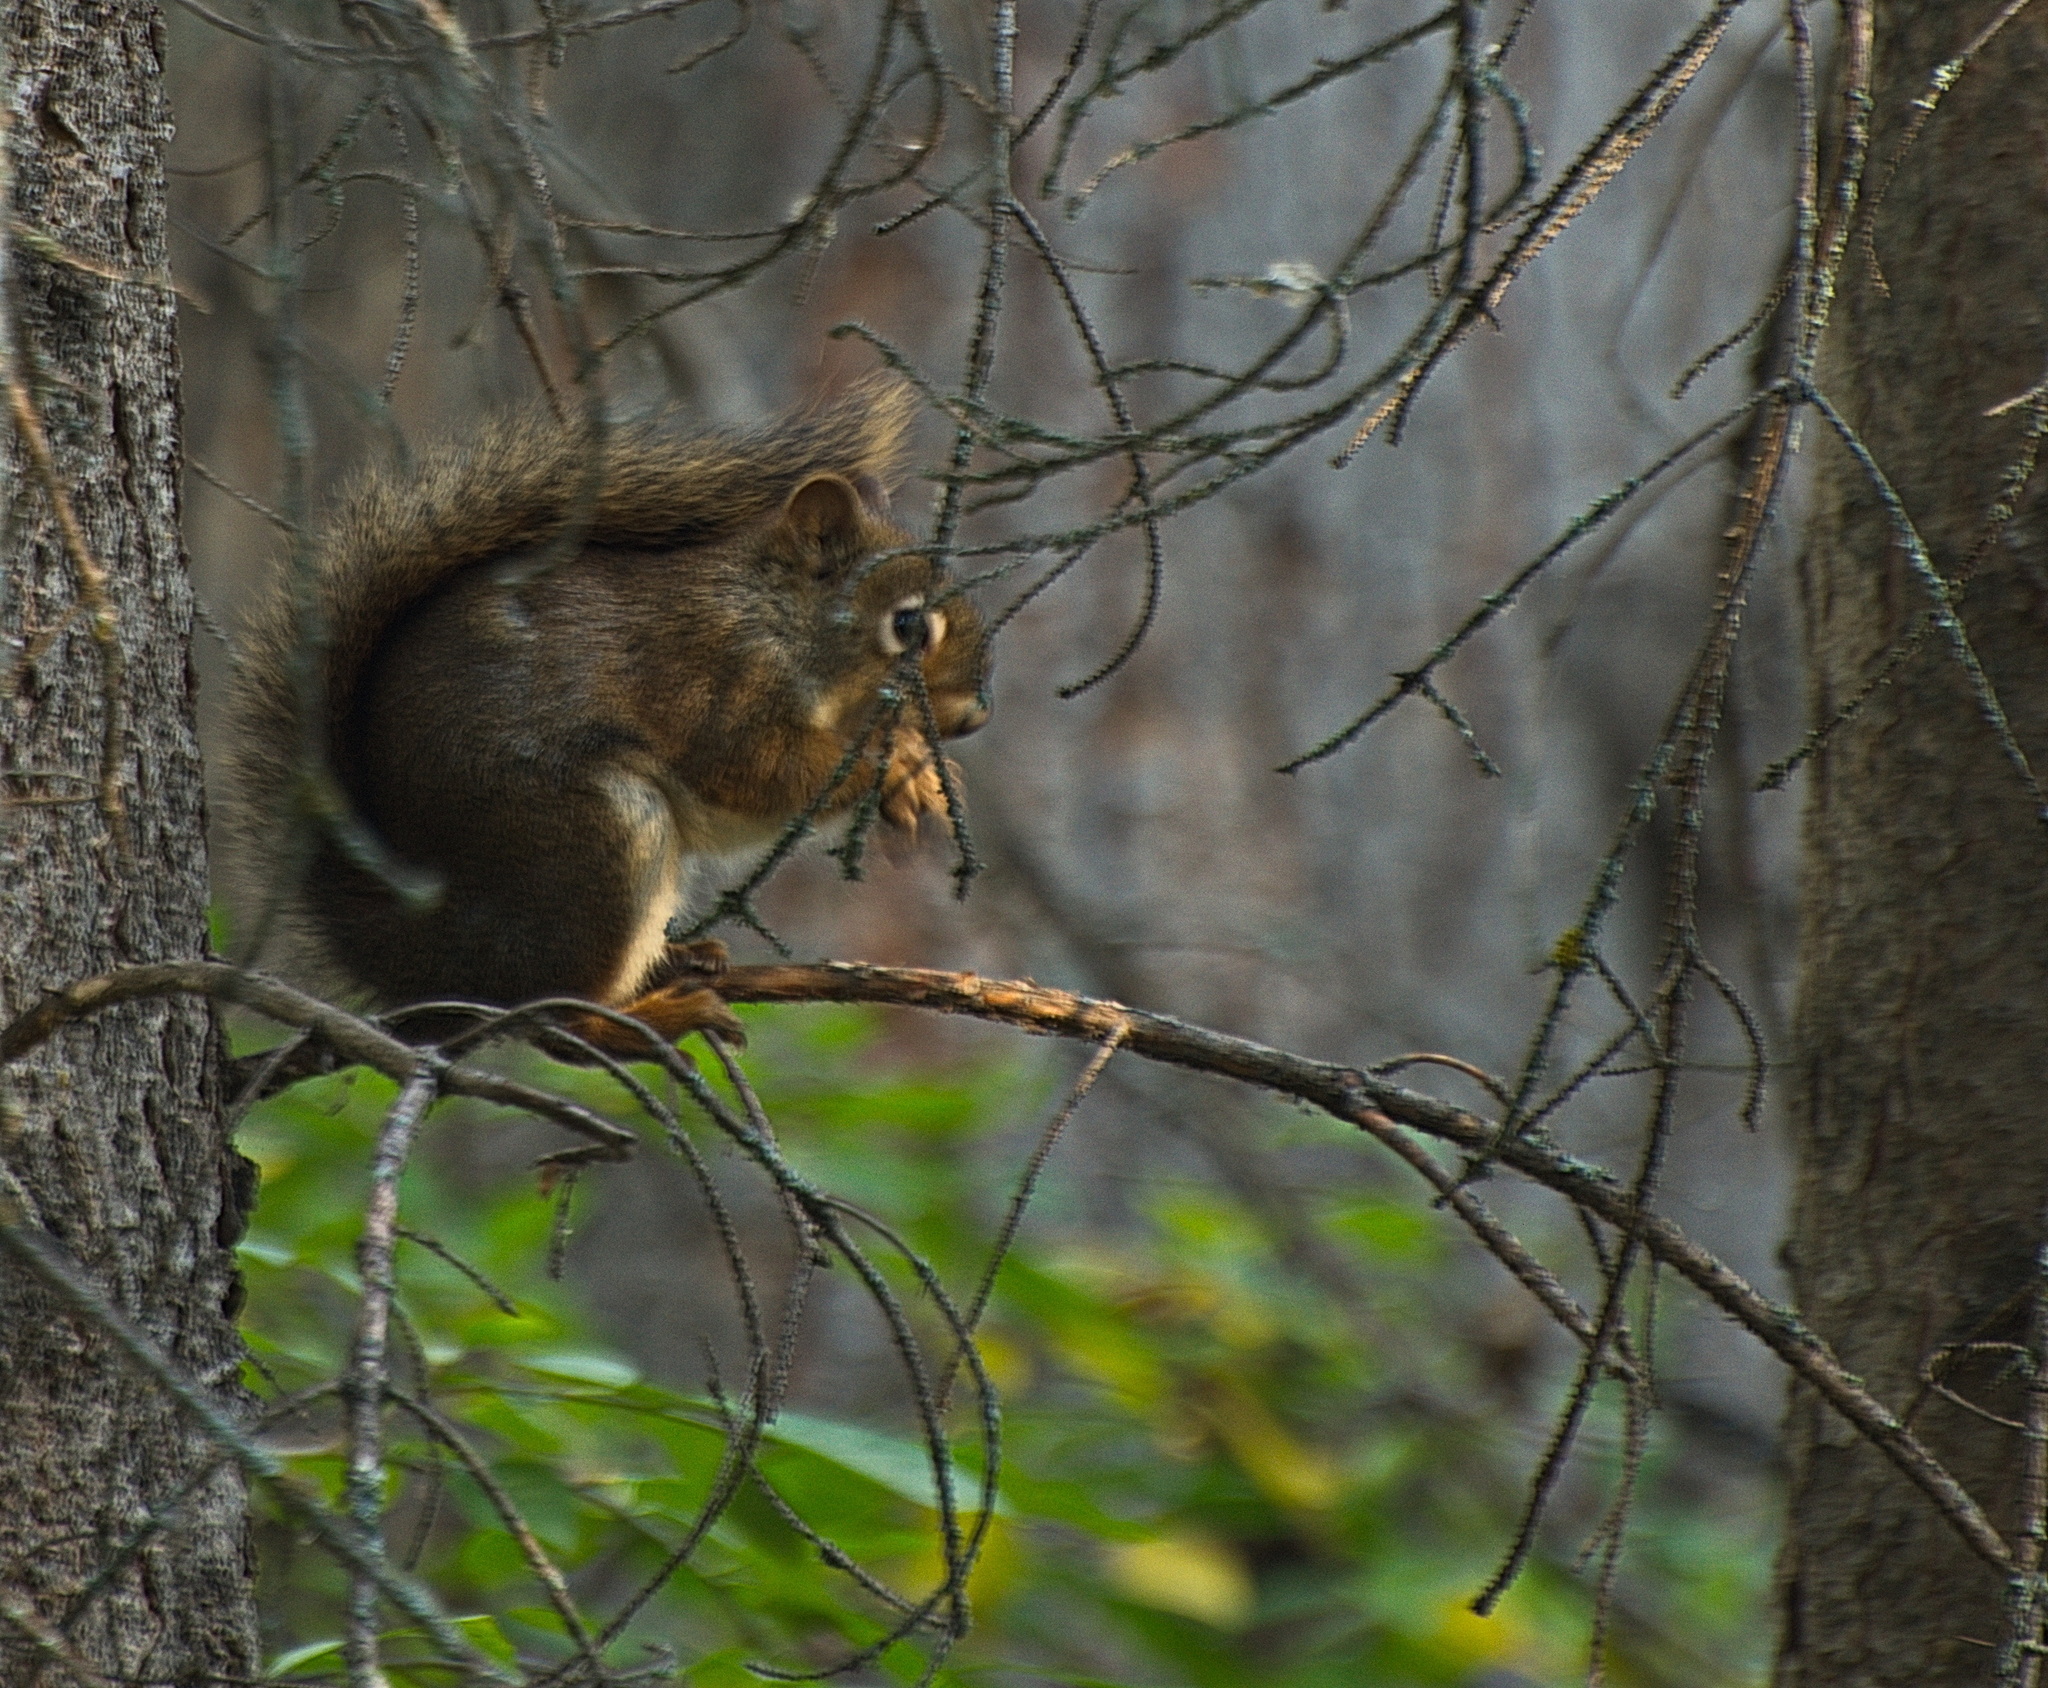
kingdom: Animalia
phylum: Chordata
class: Mammalia
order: Rodentia
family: Sciuridae
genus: Tamiasciurus
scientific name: Tamiasciurus hudsonicus
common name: Red squirrel
